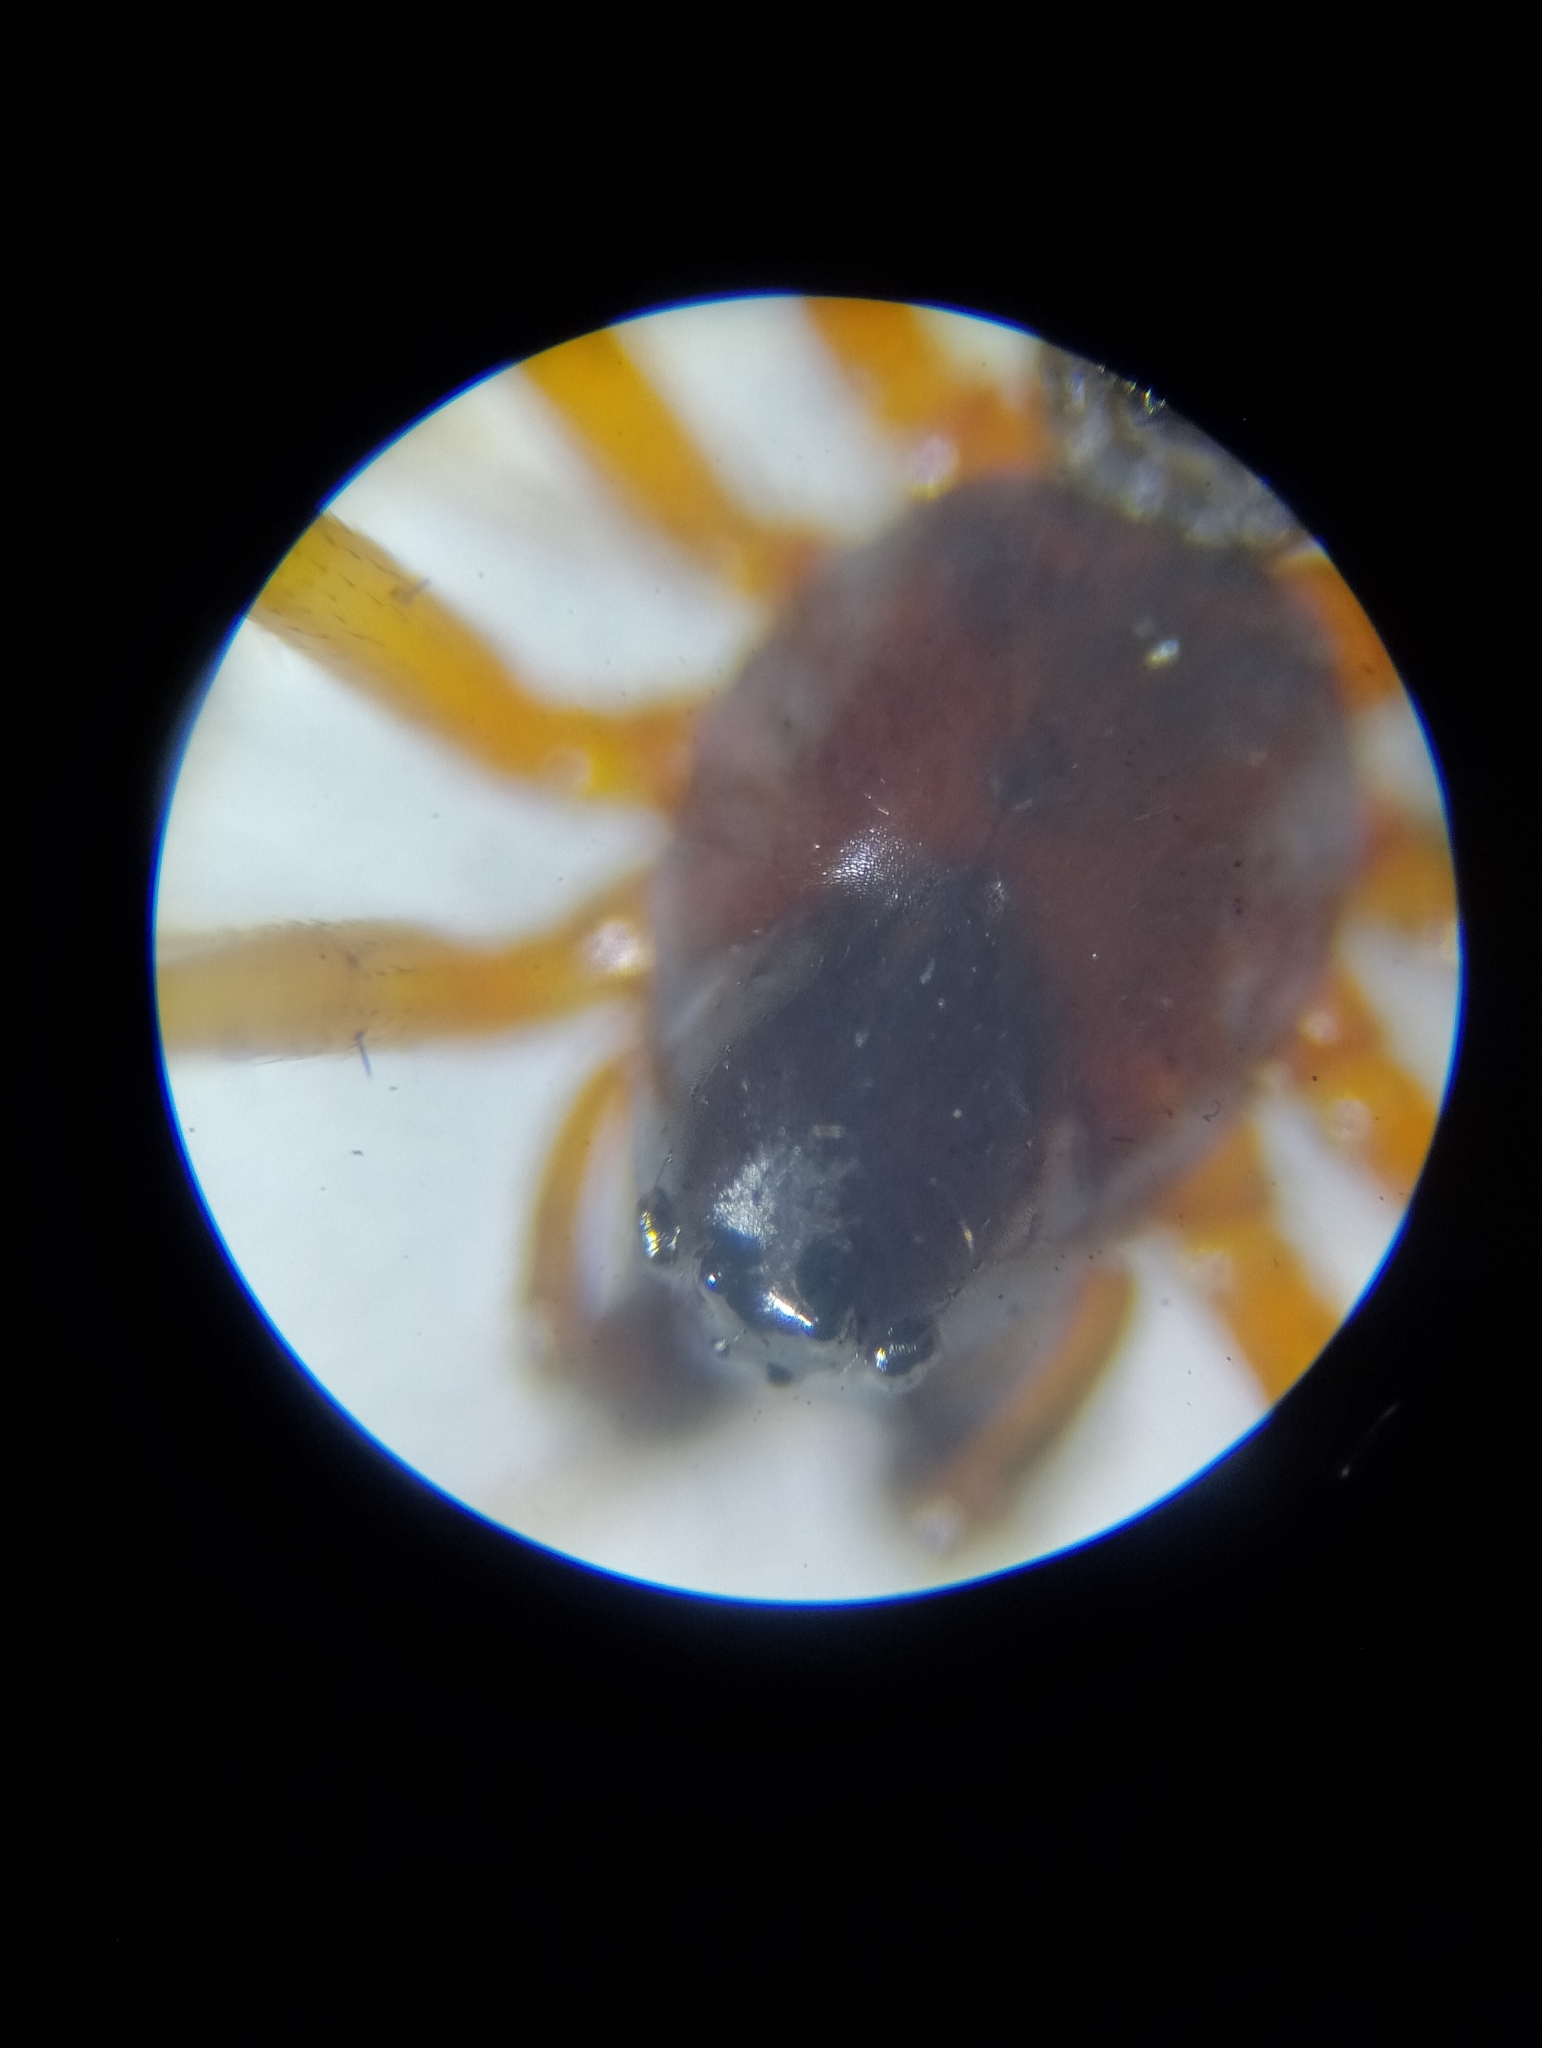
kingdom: Animalia
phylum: Arthropoda
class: Arachnida
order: Araneae
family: Linyphiidae
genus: Linyphia
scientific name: Linyphia hortensis
